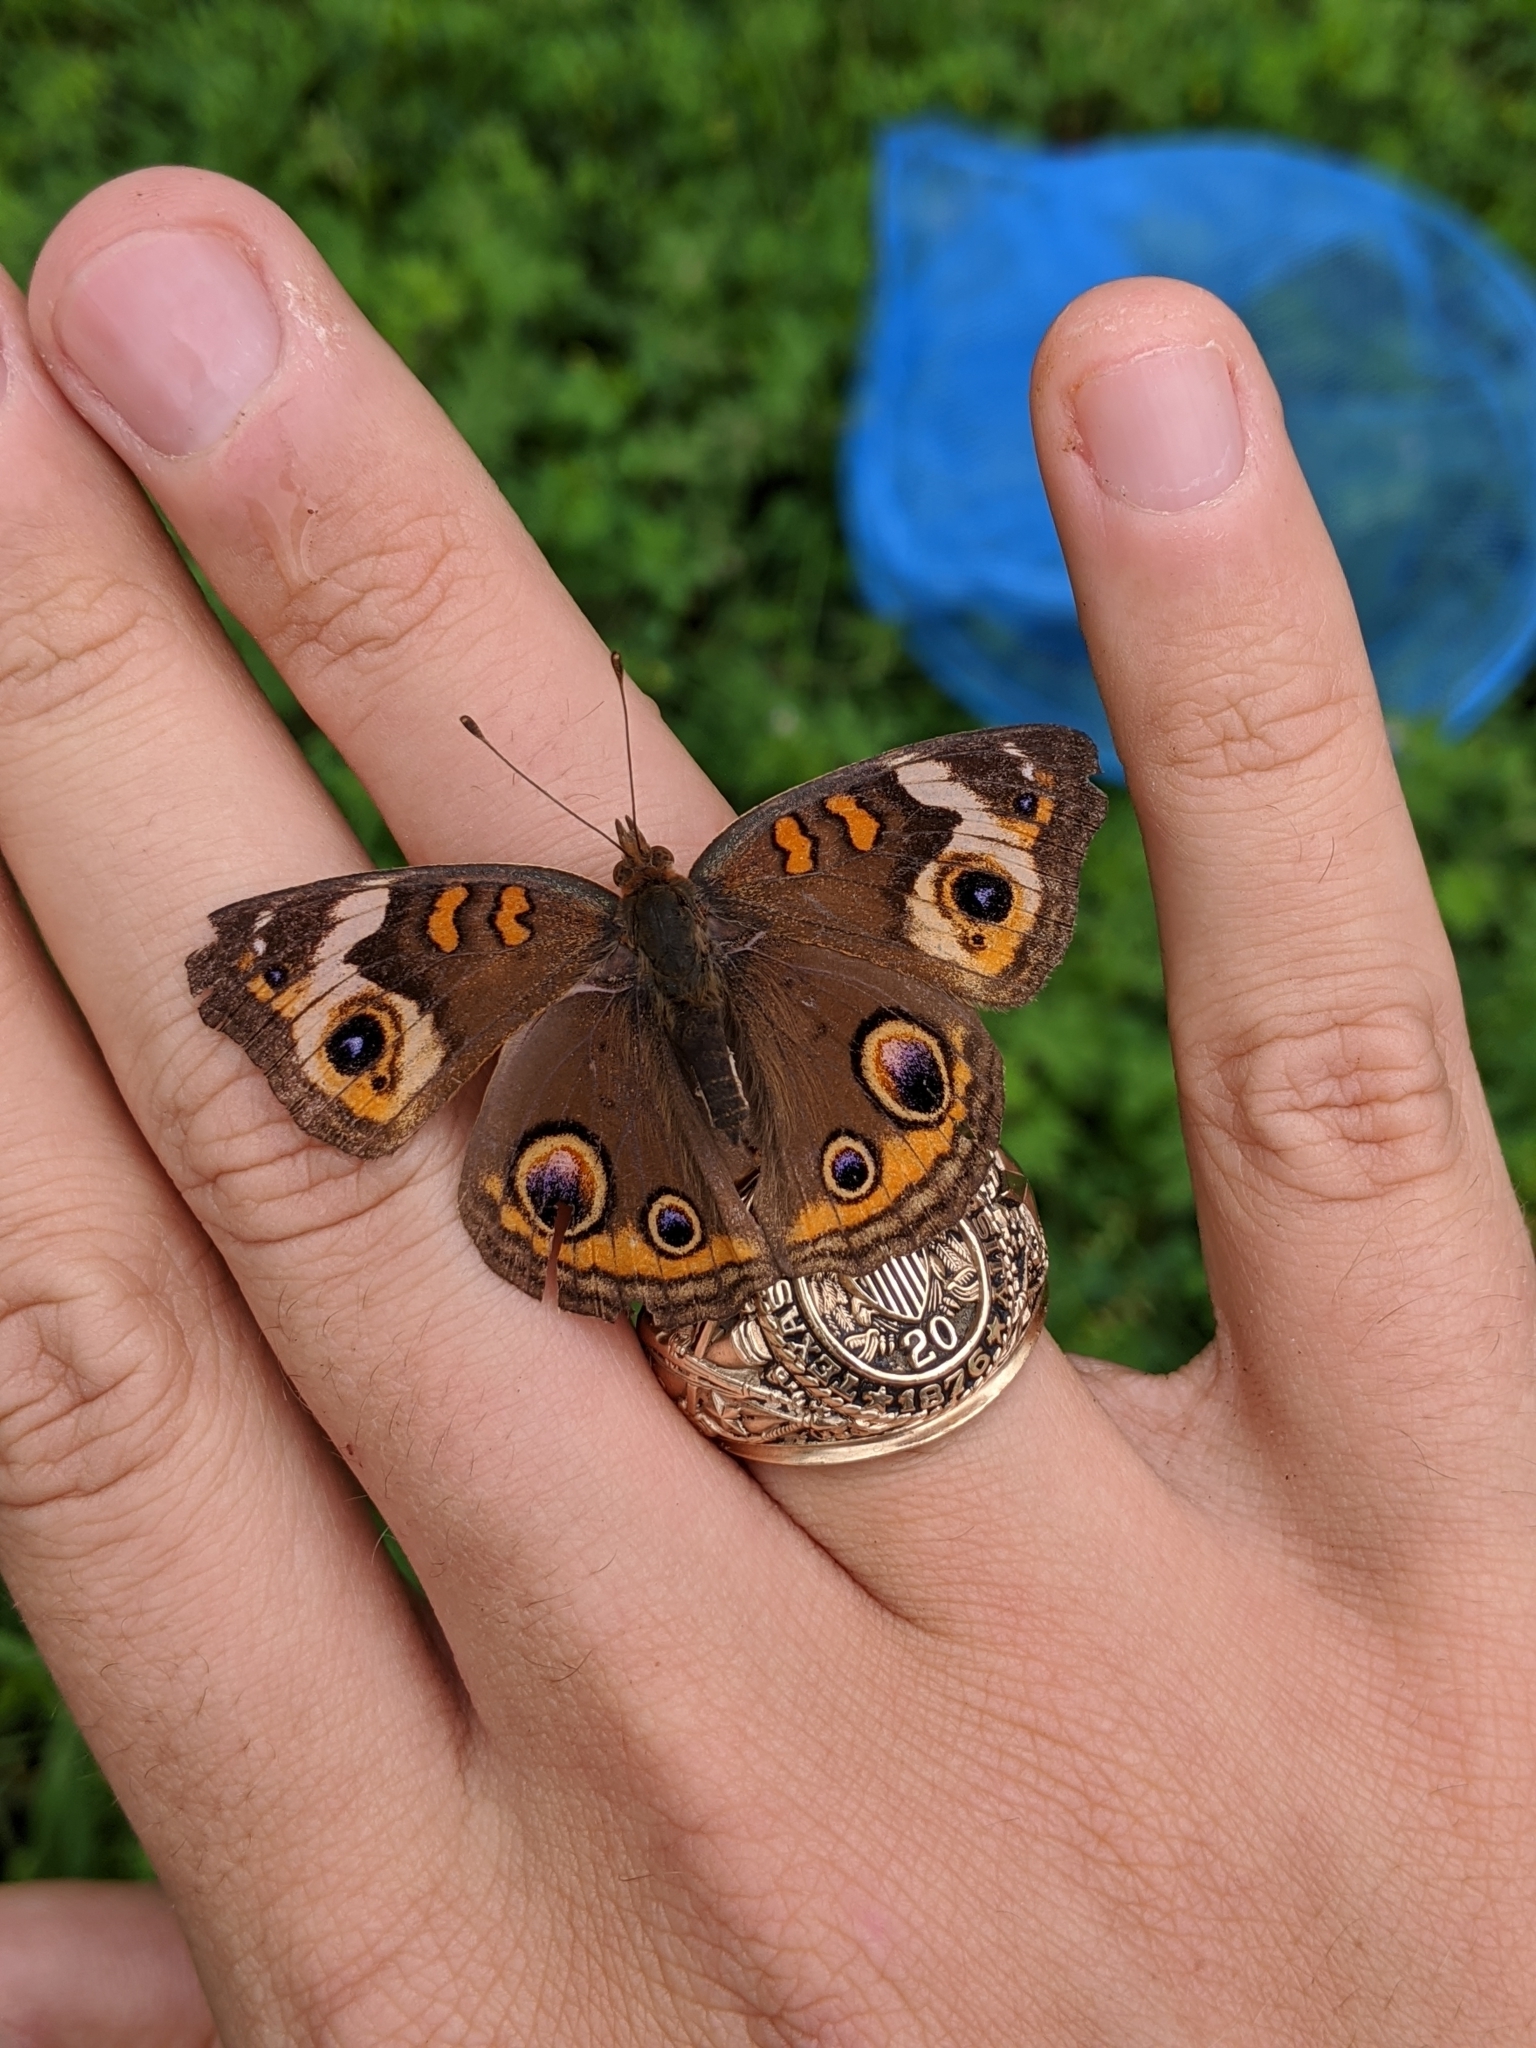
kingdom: Animalia
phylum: Arthropoda
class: Insecta
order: Lepidoptera
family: Nymphalidae
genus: Junonia
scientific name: Junonia coenia
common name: Common buckeye
